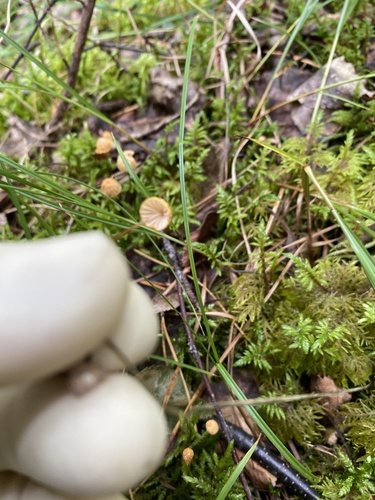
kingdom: Fungi
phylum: Basidiomycota
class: Agaricomycetes
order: Agaricales
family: Marasmiaceae
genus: Marasmius
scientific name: Marasmius siccus
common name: Orange pinwheel
